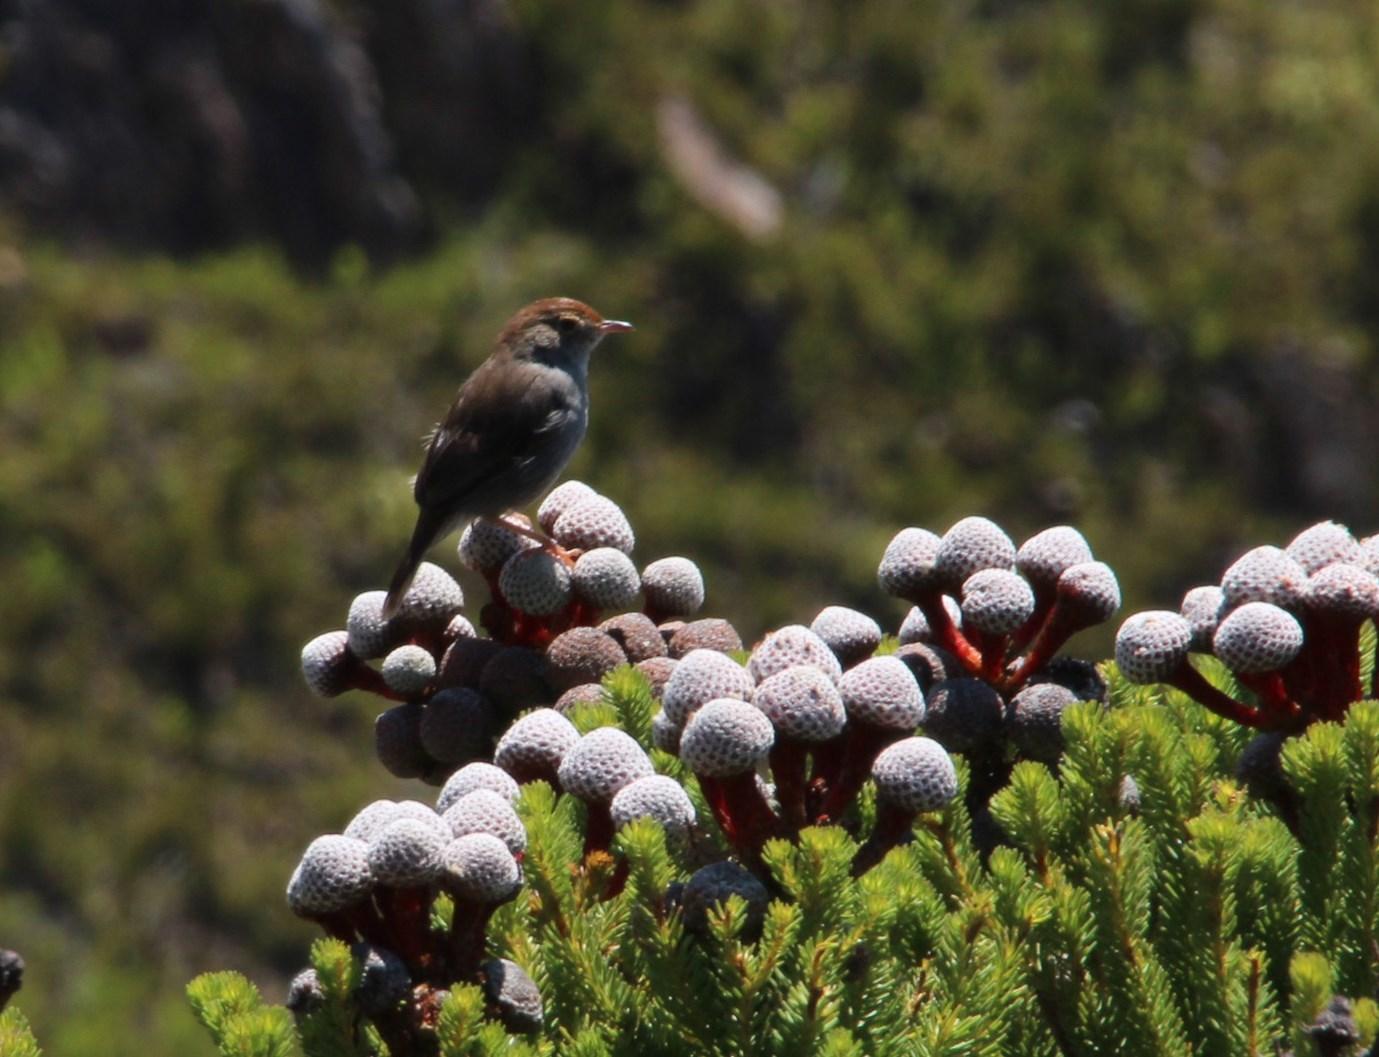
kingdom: Animalia
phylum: Chordata
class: Aves
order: Passeriformes
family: Cisticolidae
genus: Cisticola
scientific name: Cisticola fulvicapilla
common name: Neddicky
